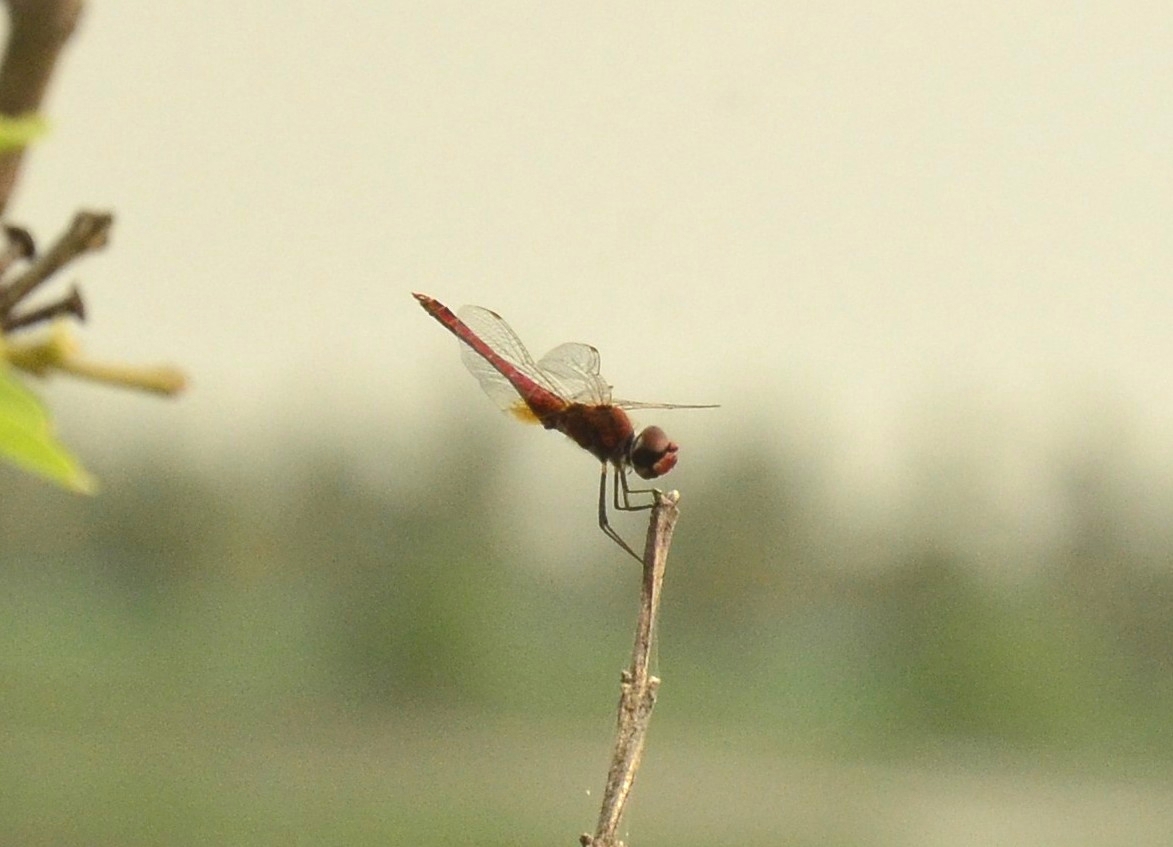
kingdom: Animalia
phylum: Arthropoda
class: Insecta
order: Odonata
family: Libellulidae
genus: Macrodiplax
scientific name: Macrodiplax cora
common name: Coastal glider
